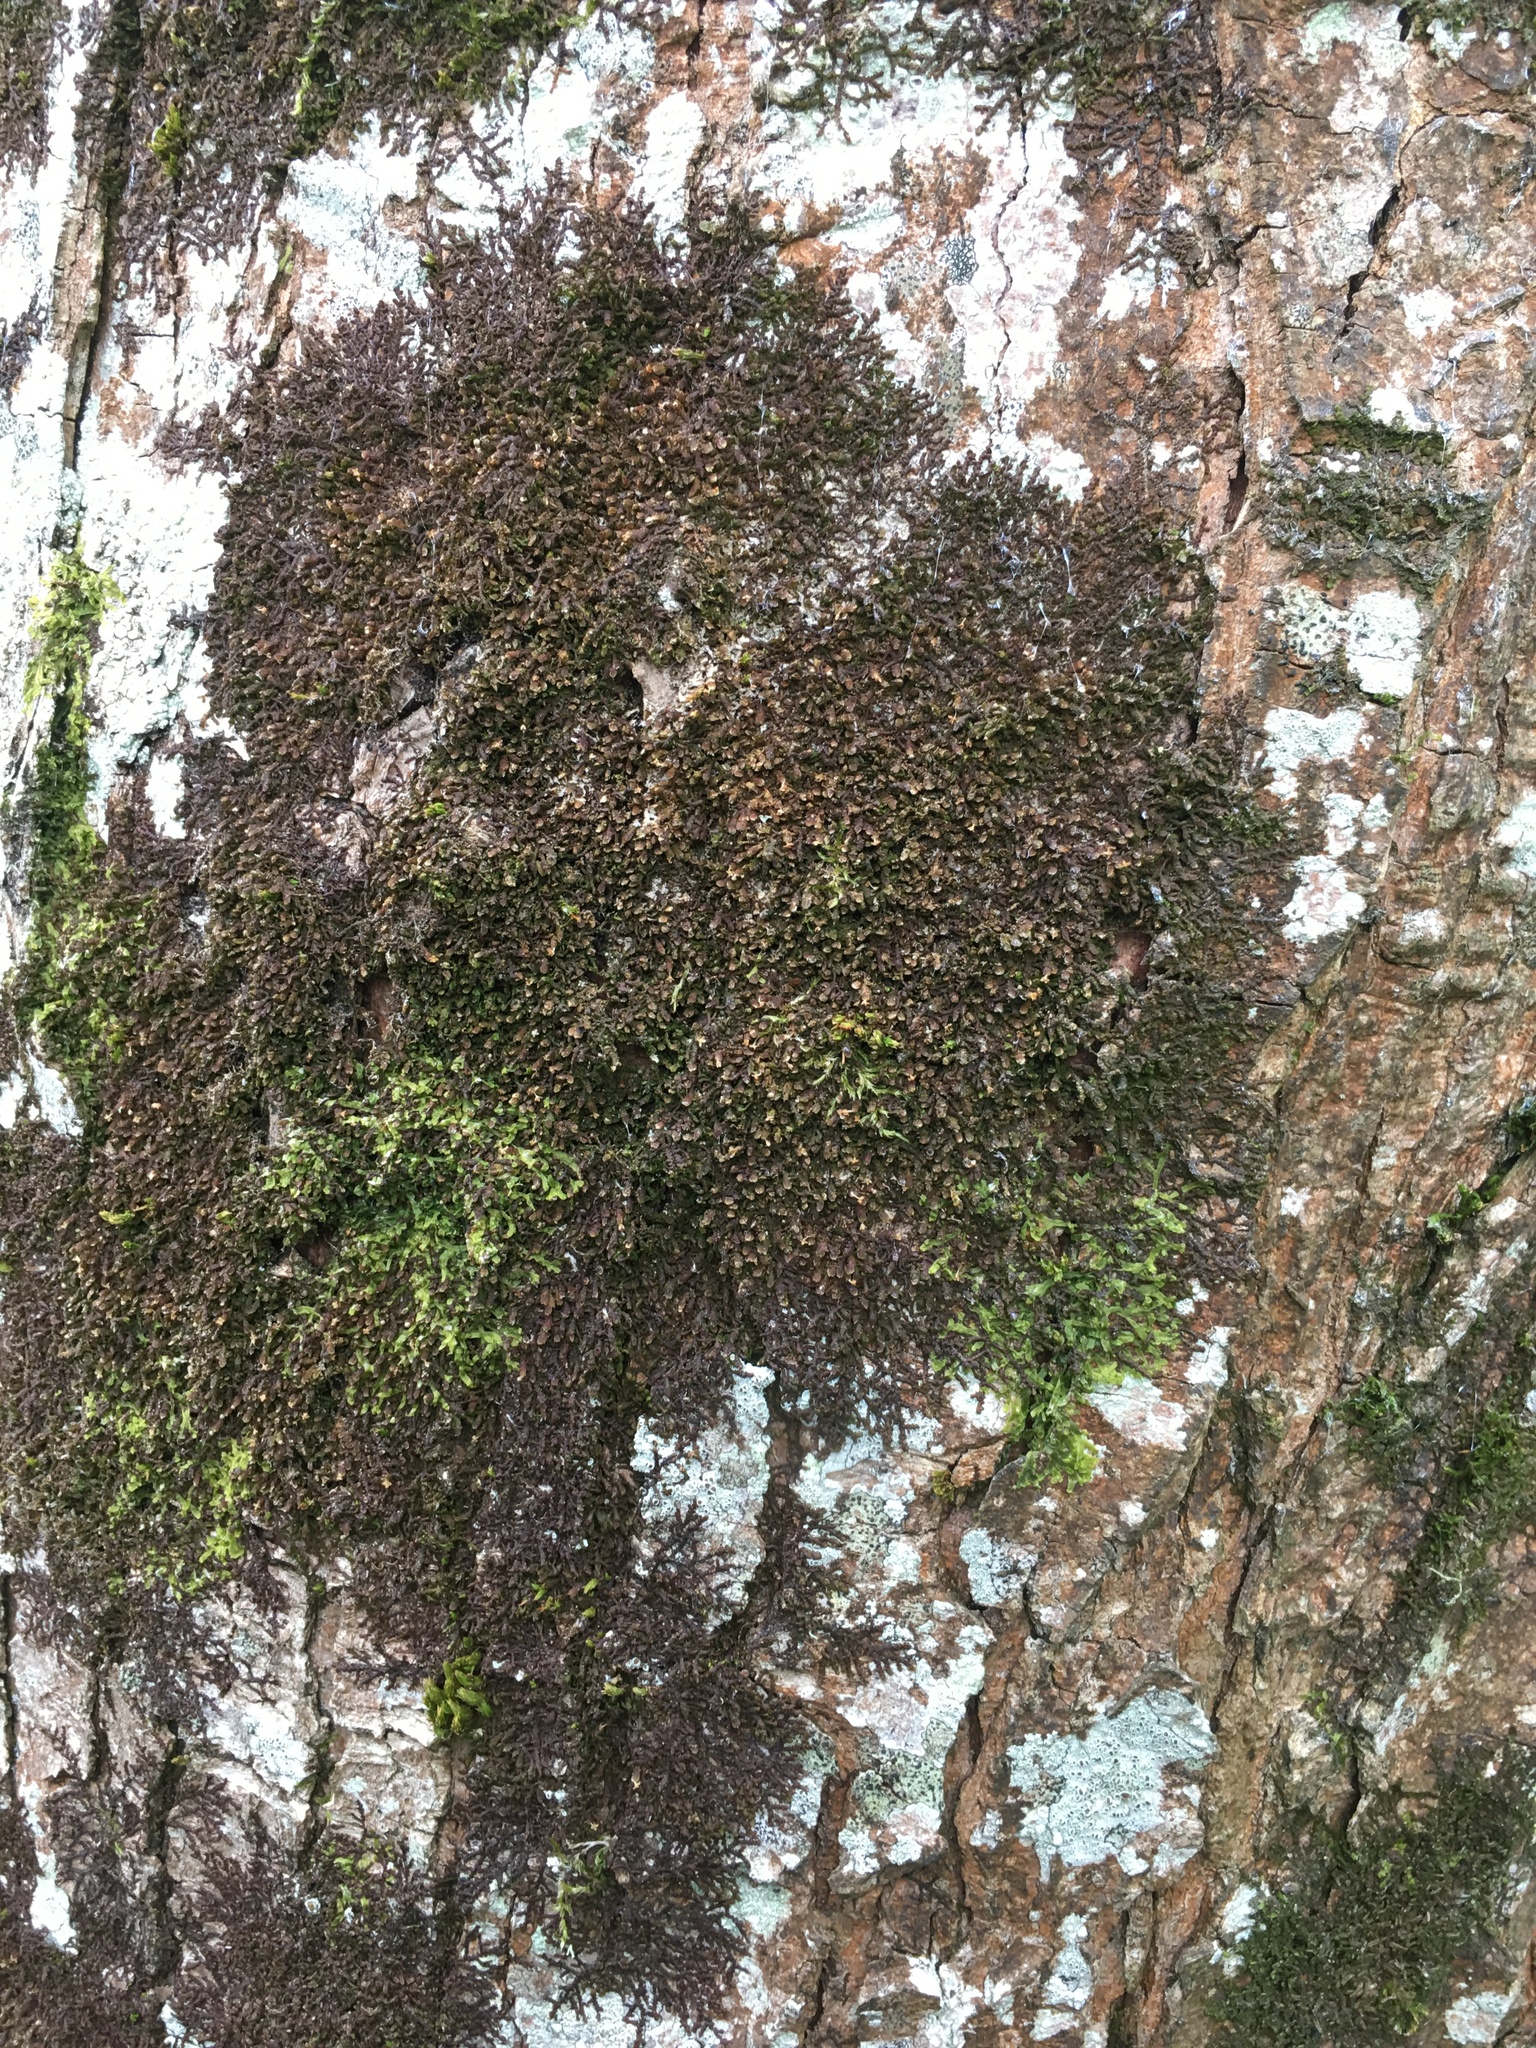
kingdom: Plantae
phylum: Marchantiophyta
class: Jungermanniopsida
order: Porellales
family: Frullaniaceae
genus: Frullania
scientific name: Frullania dilatata
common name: Dilated scalewort
